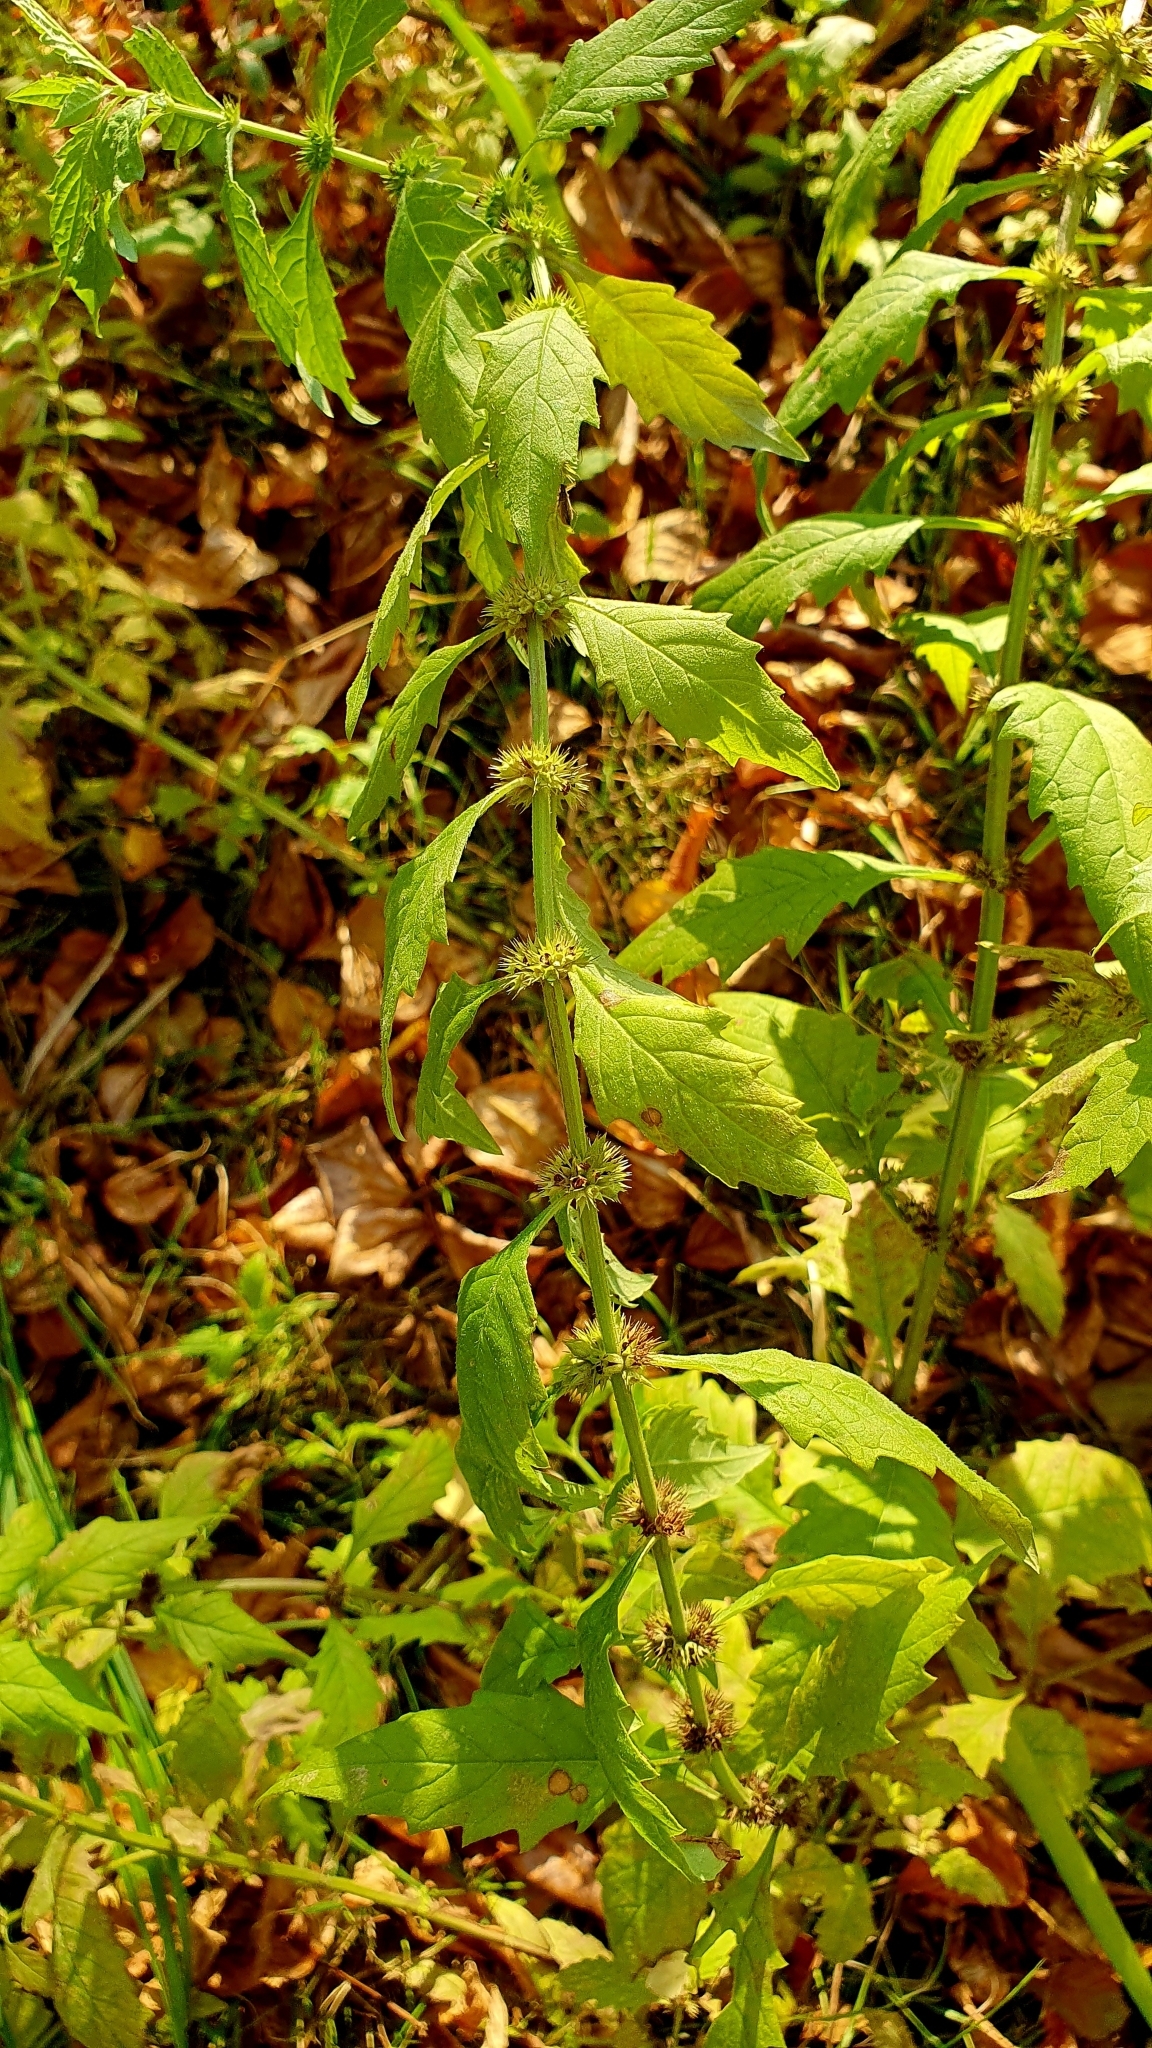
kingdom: Plantae
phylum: Tracheophyta
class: Magnoliopsida
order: Lamiales
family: Lamiaceae
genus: Lycopus
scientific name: Lycopus europaeus
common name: European bugleweed
